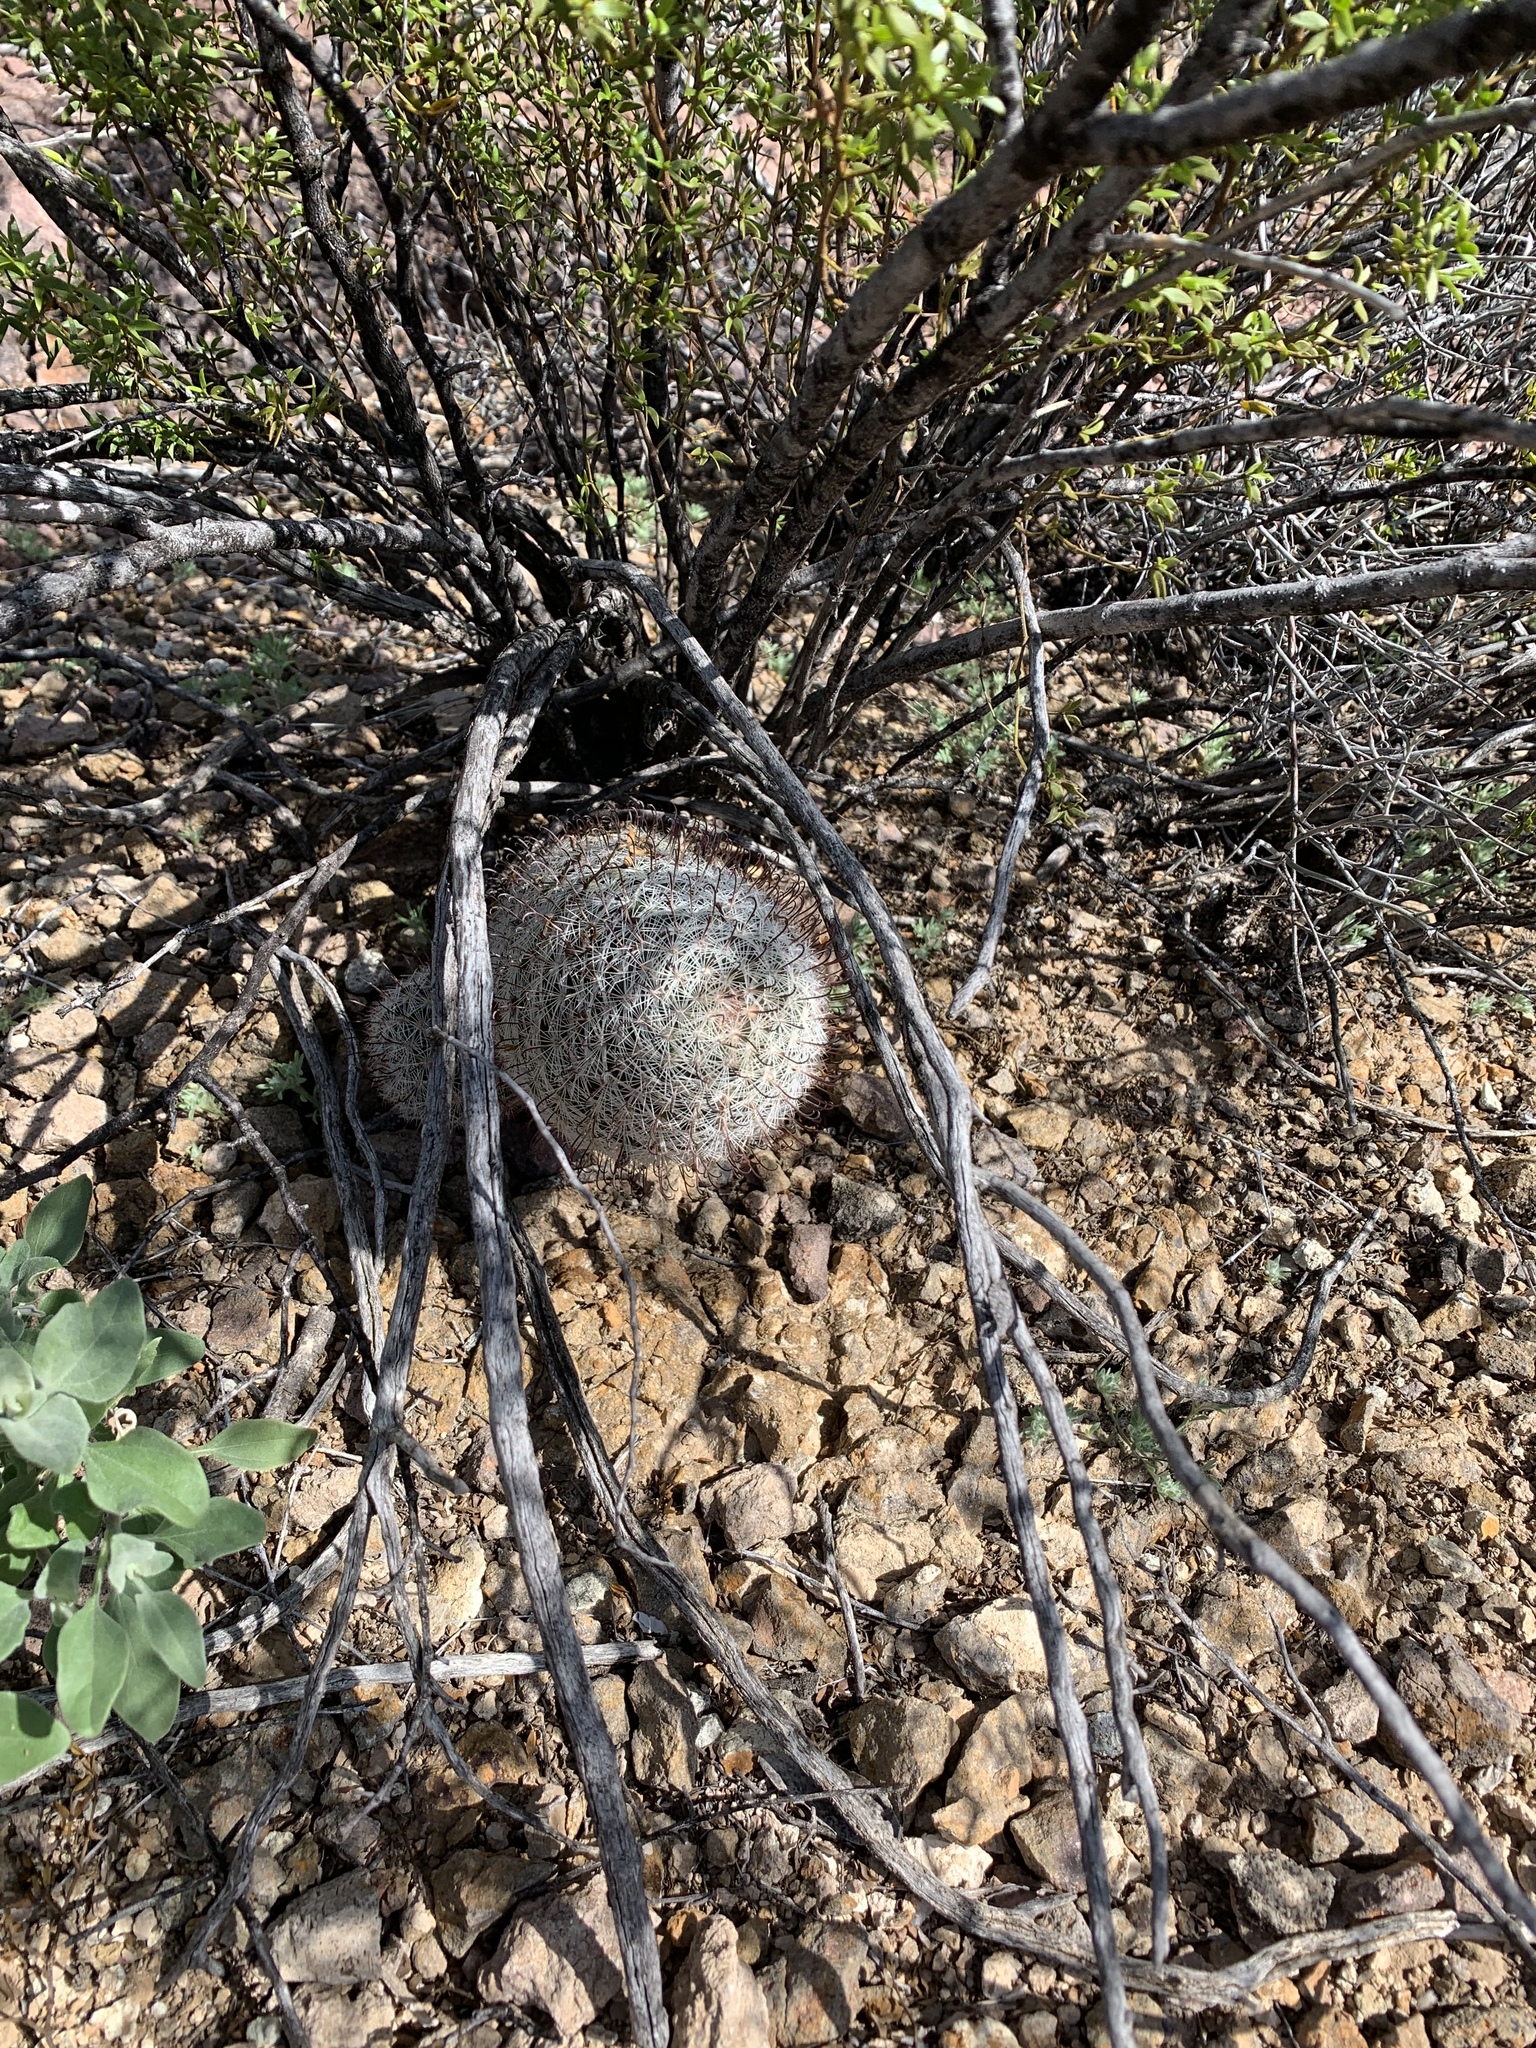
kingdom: Plantae
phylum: Tracheophyta
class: Magnoliopsida
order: Caryophyllales
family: Cactaceae
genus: Cochemiea
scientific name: Cochemiea grahamii
